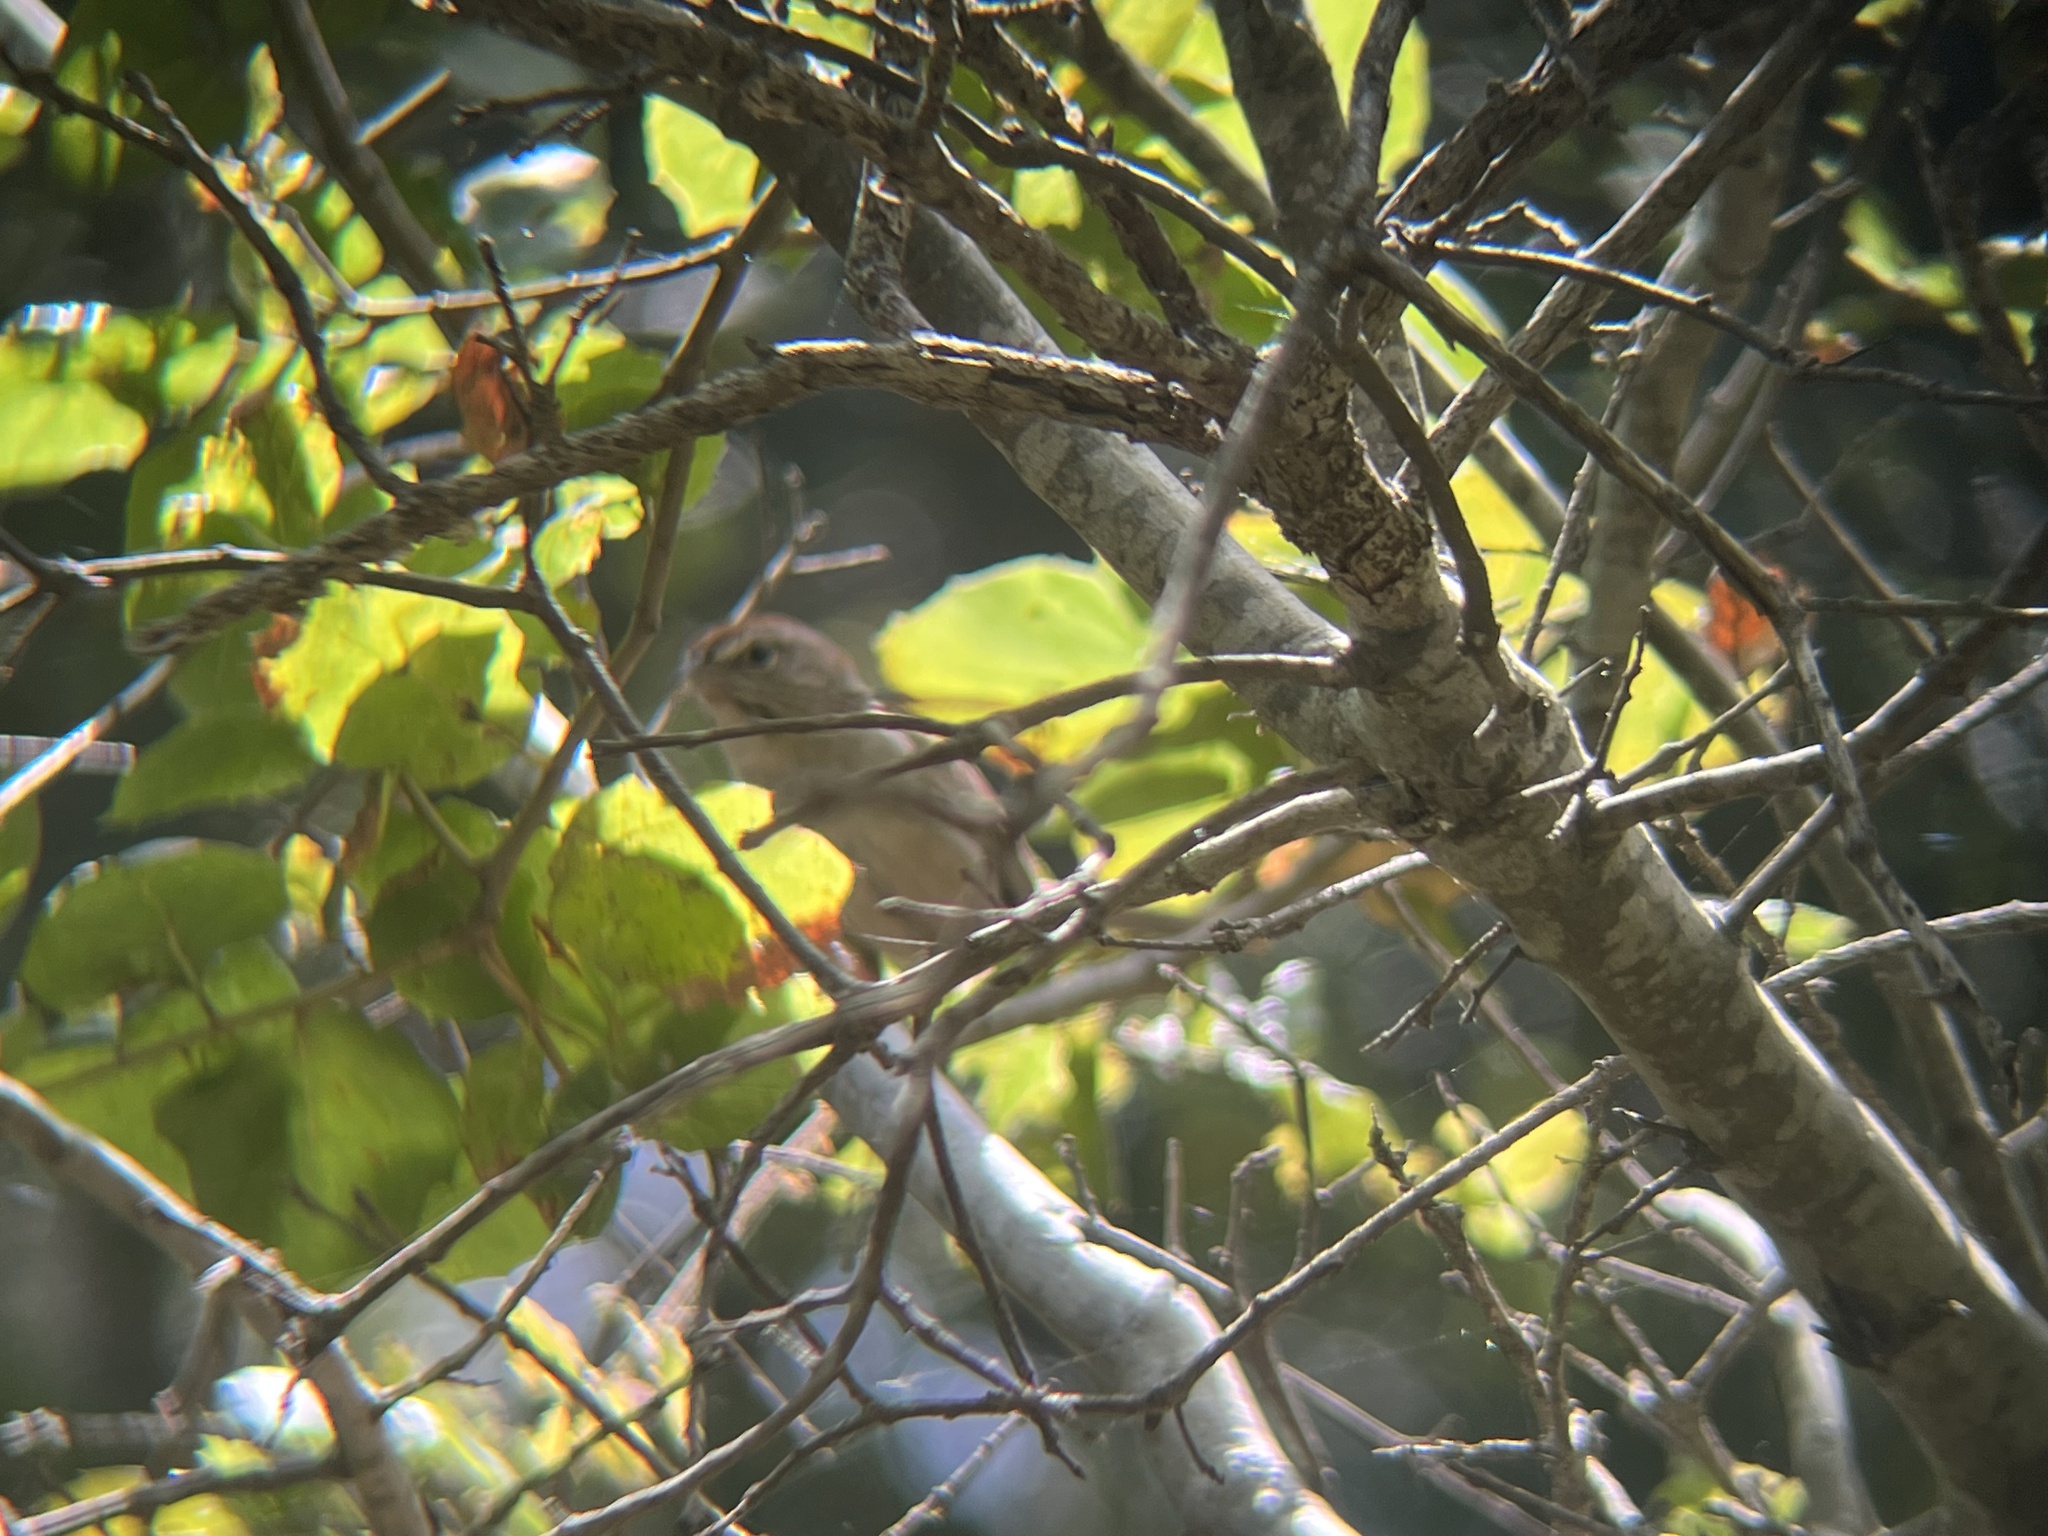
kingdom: Animalia
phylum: Chordata
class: Aves
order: Passeriformes
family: Passerellidae
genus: Aimophila
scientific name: Aimophila ruficeps
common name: Rufous-crowned sparrow
